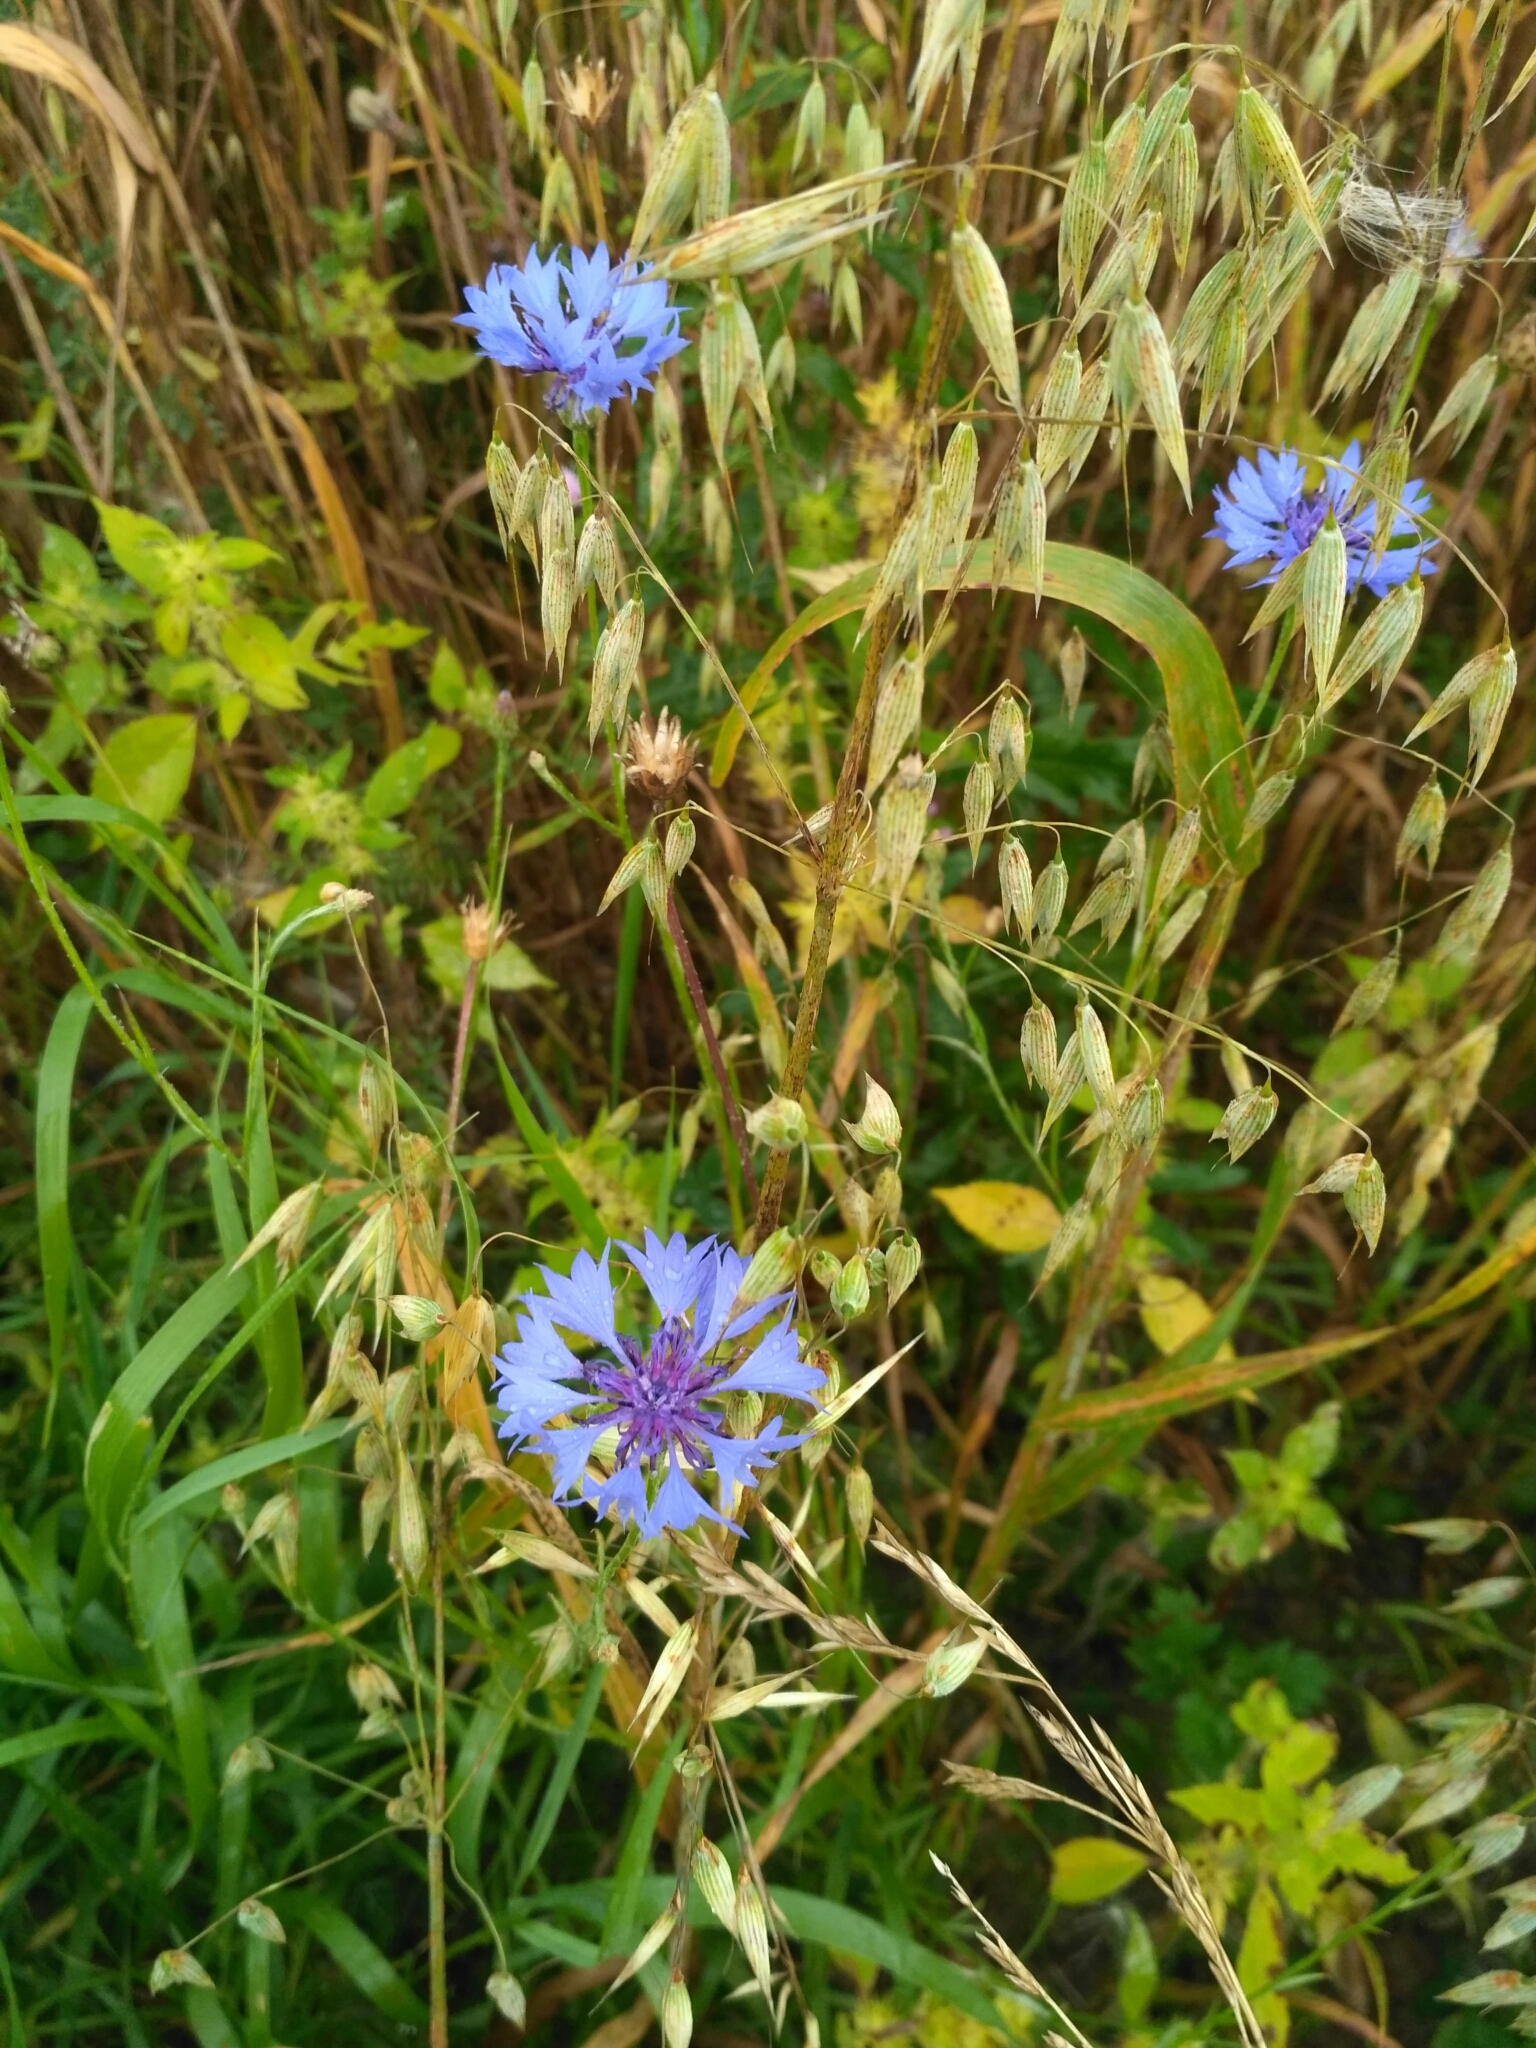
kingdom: Plantae
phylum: Tracheophyta
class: Magnoliopsida
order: Asterales
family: Asteraceae
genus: Centaurea
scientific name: Centaurea cyanus
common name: Cornflower
